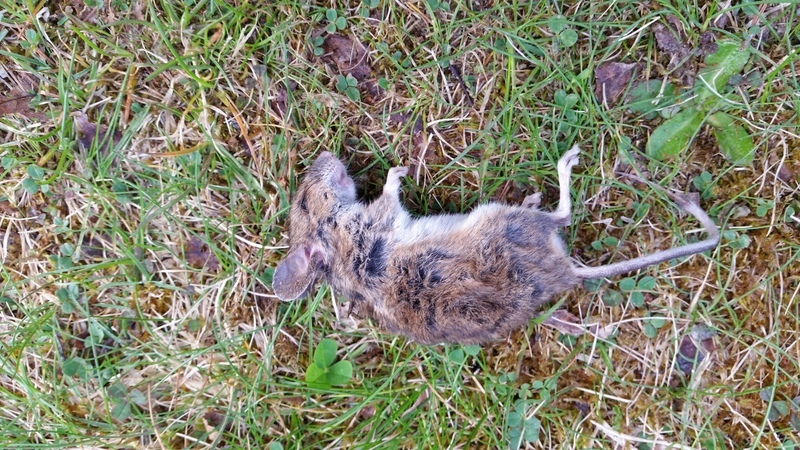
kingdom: Animalia
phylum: Chordata
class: Mammalia
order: Rodentia
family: Muridae
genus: Apodemus
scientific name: Apodemus sylvaticus
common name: Wood mouse
